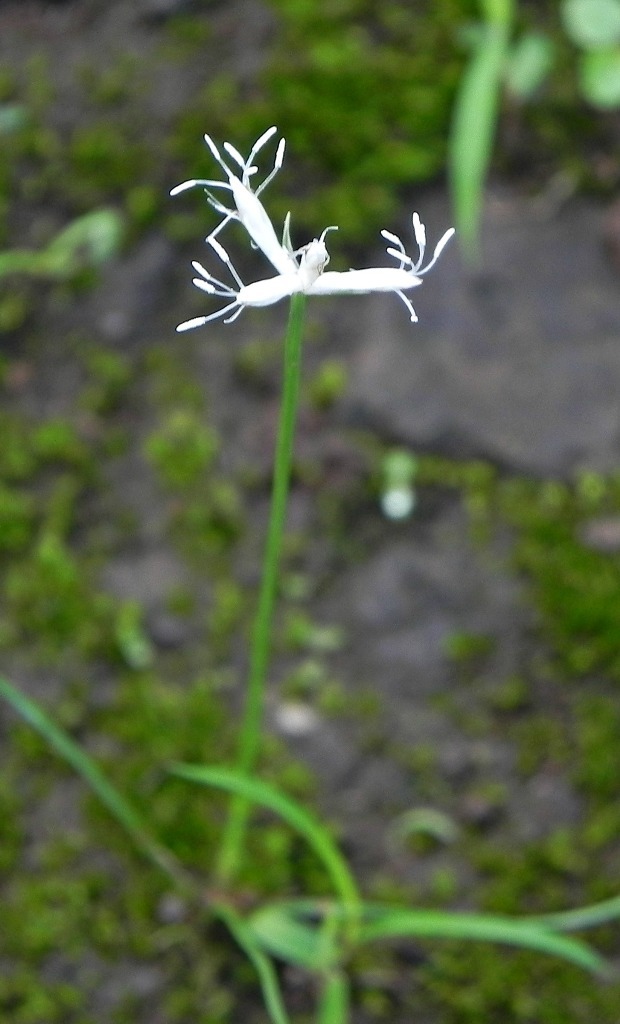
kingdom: Plantae
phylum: Tracheophyta
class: Liliopsida
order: Poales
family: Cyperaceae
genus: Fimbristylis
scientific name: Fimbristylis lawiana
